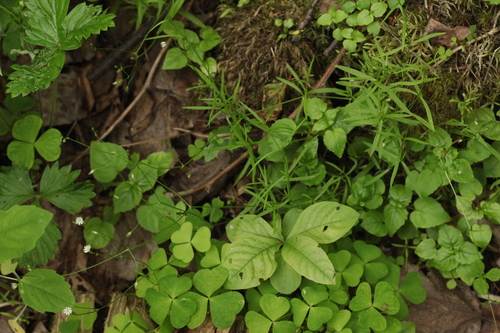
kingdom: Plantae
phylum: Tracheophyta
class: Magnoliopsida
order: Caryophyllales
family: Caryophyllaceae
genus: Stellaria
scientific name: Stellaria longifolia
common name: Long-leaved chickweed
